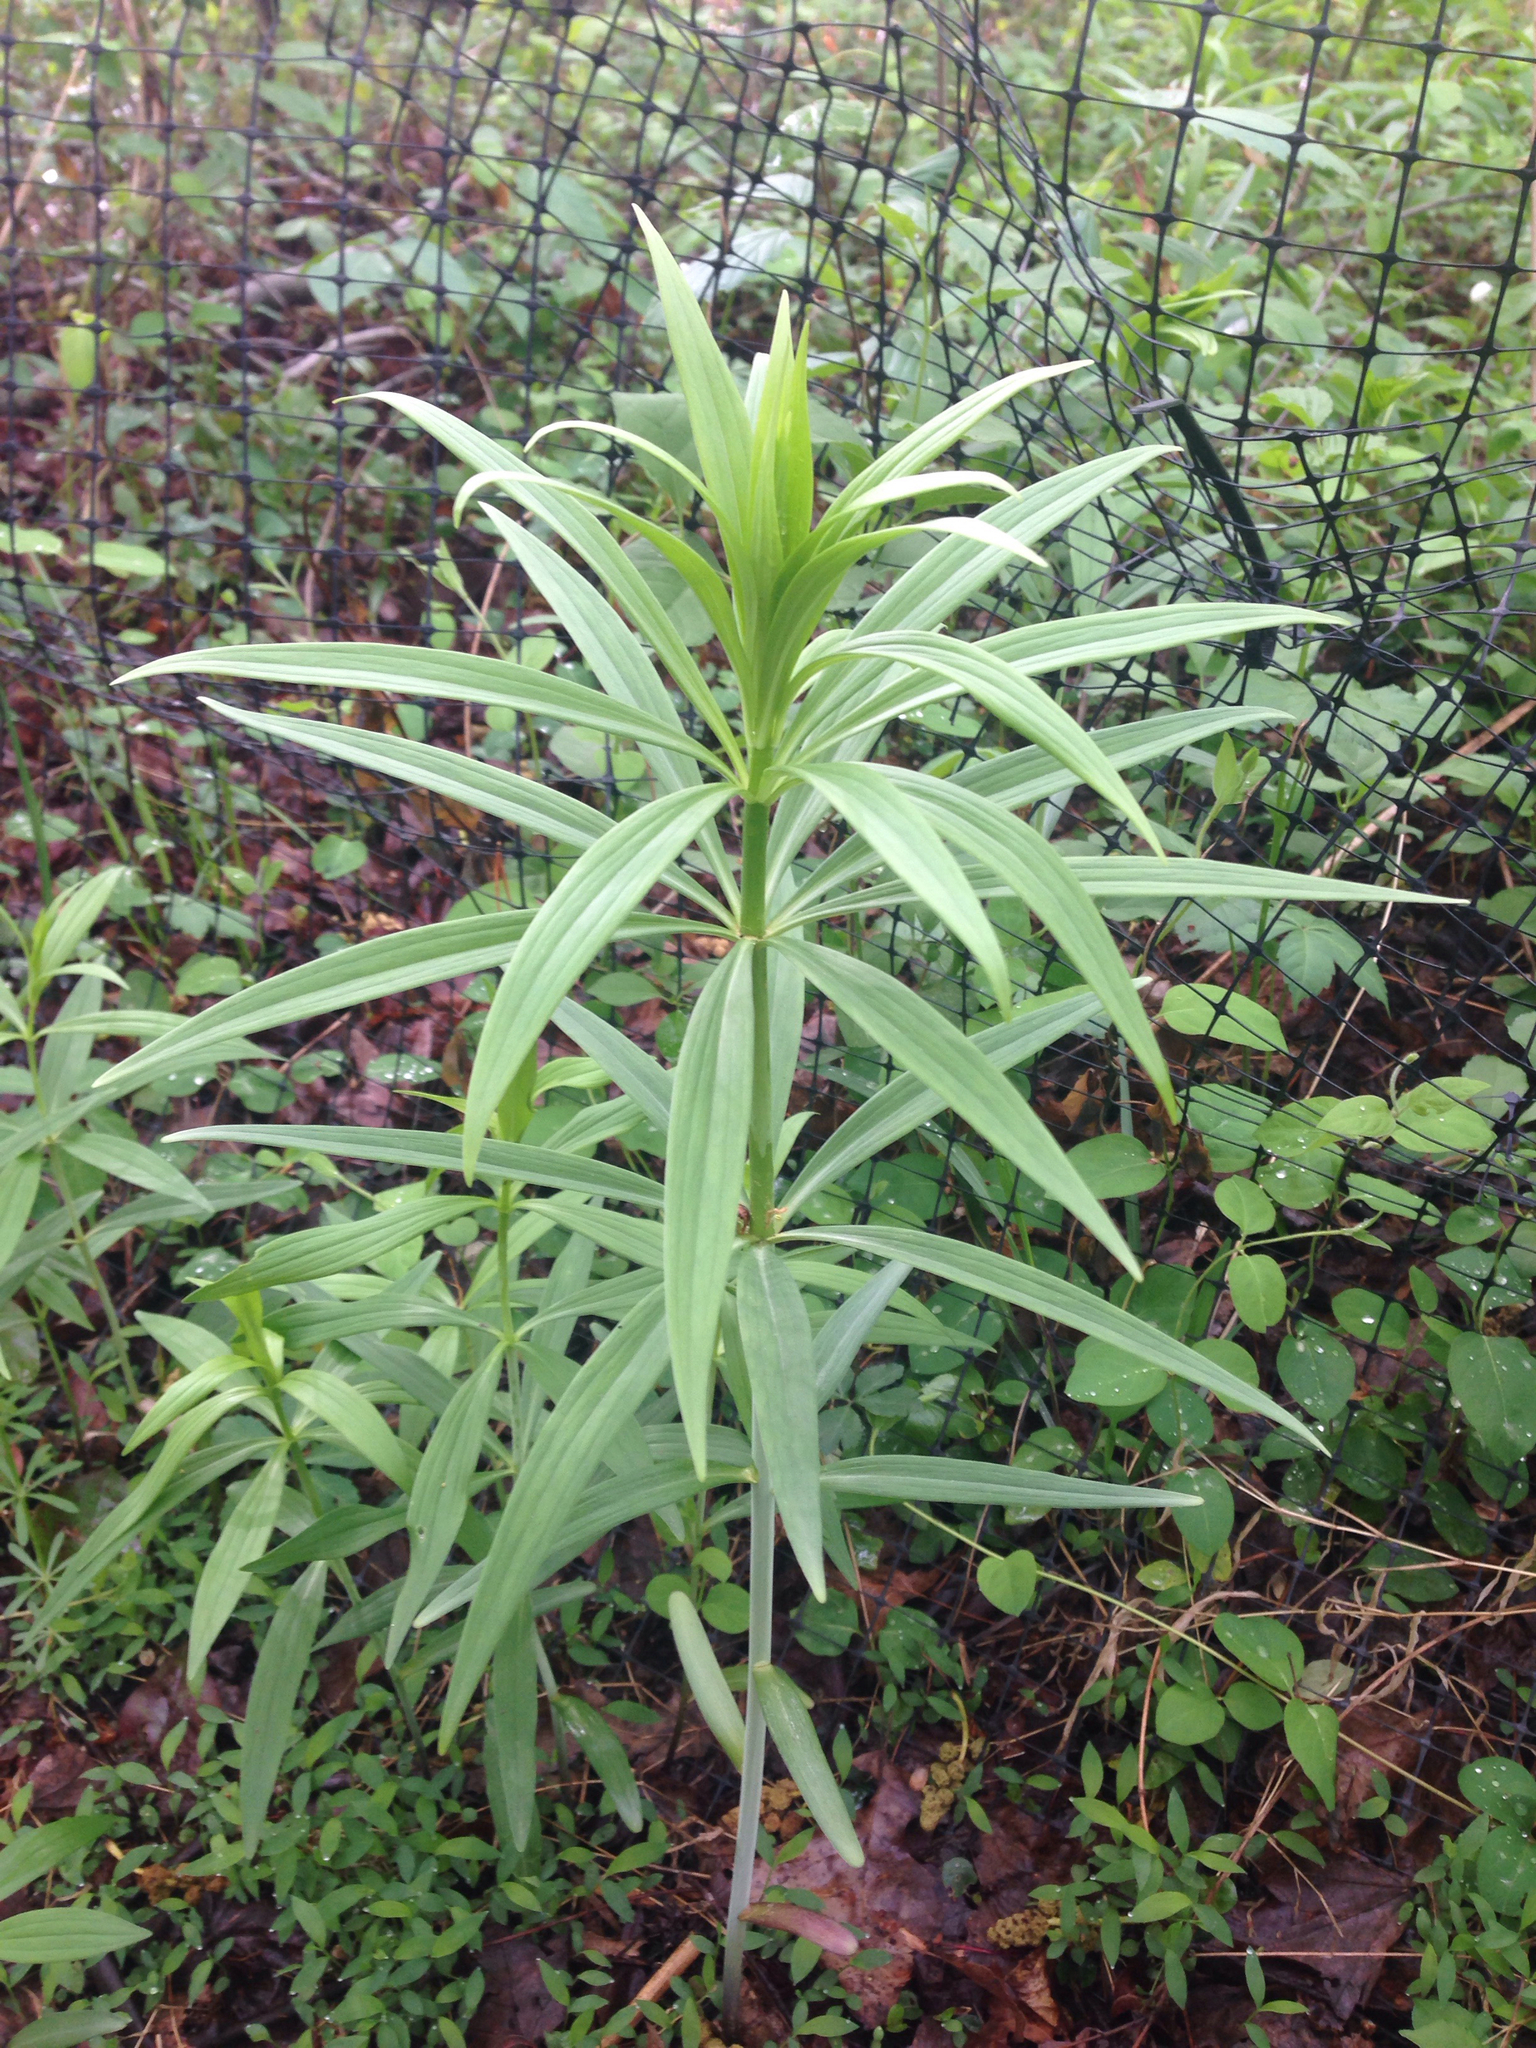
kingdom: Plantae
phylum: Tracheophyta
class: Liliopsida
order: Liliales
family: Liliaceae
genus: Lilium
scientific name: Lilium superbum
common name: American turk's-cap lily
